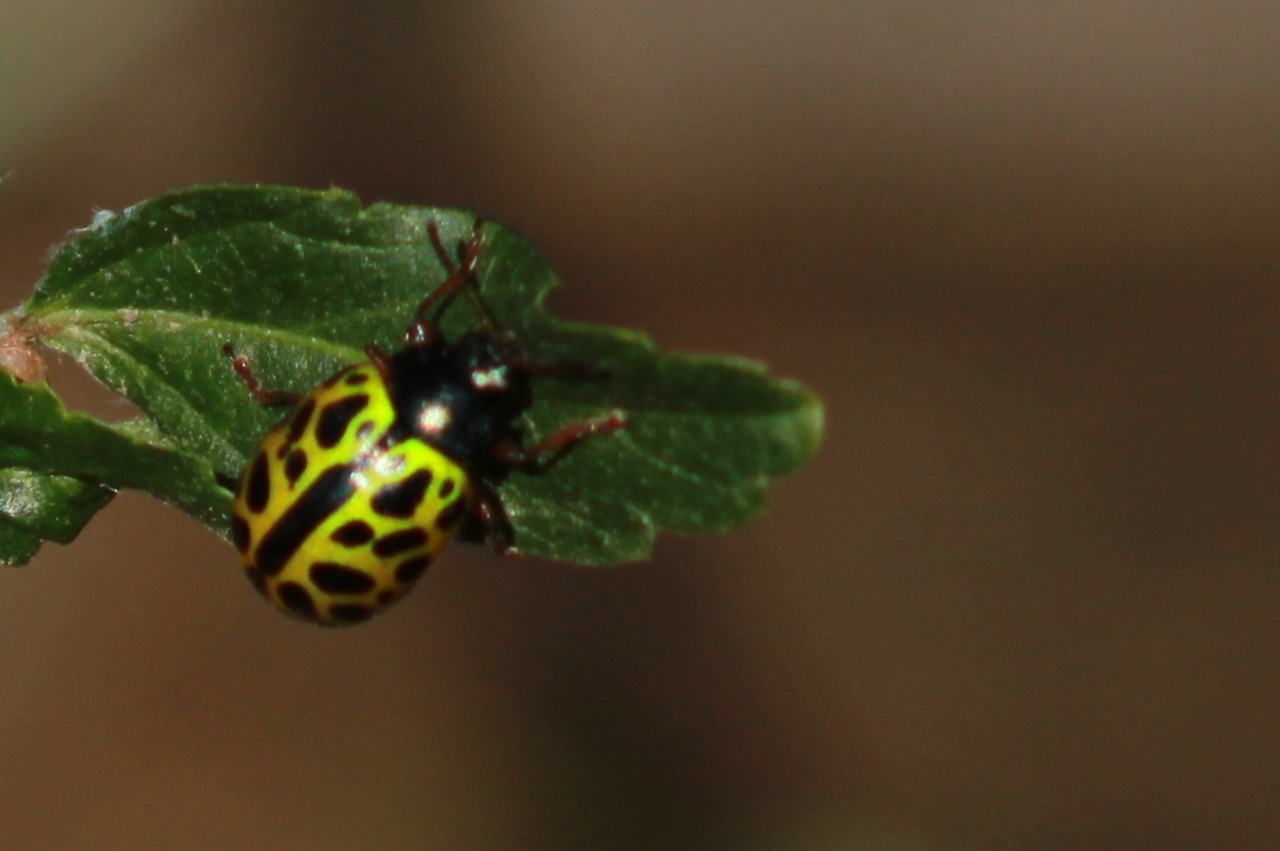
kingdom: Animalia
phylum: Arthropoda
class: Insecta
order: Coleoptera
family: Chrysomelidae
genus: Calligrapha
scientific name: Calligrapha polyspila
